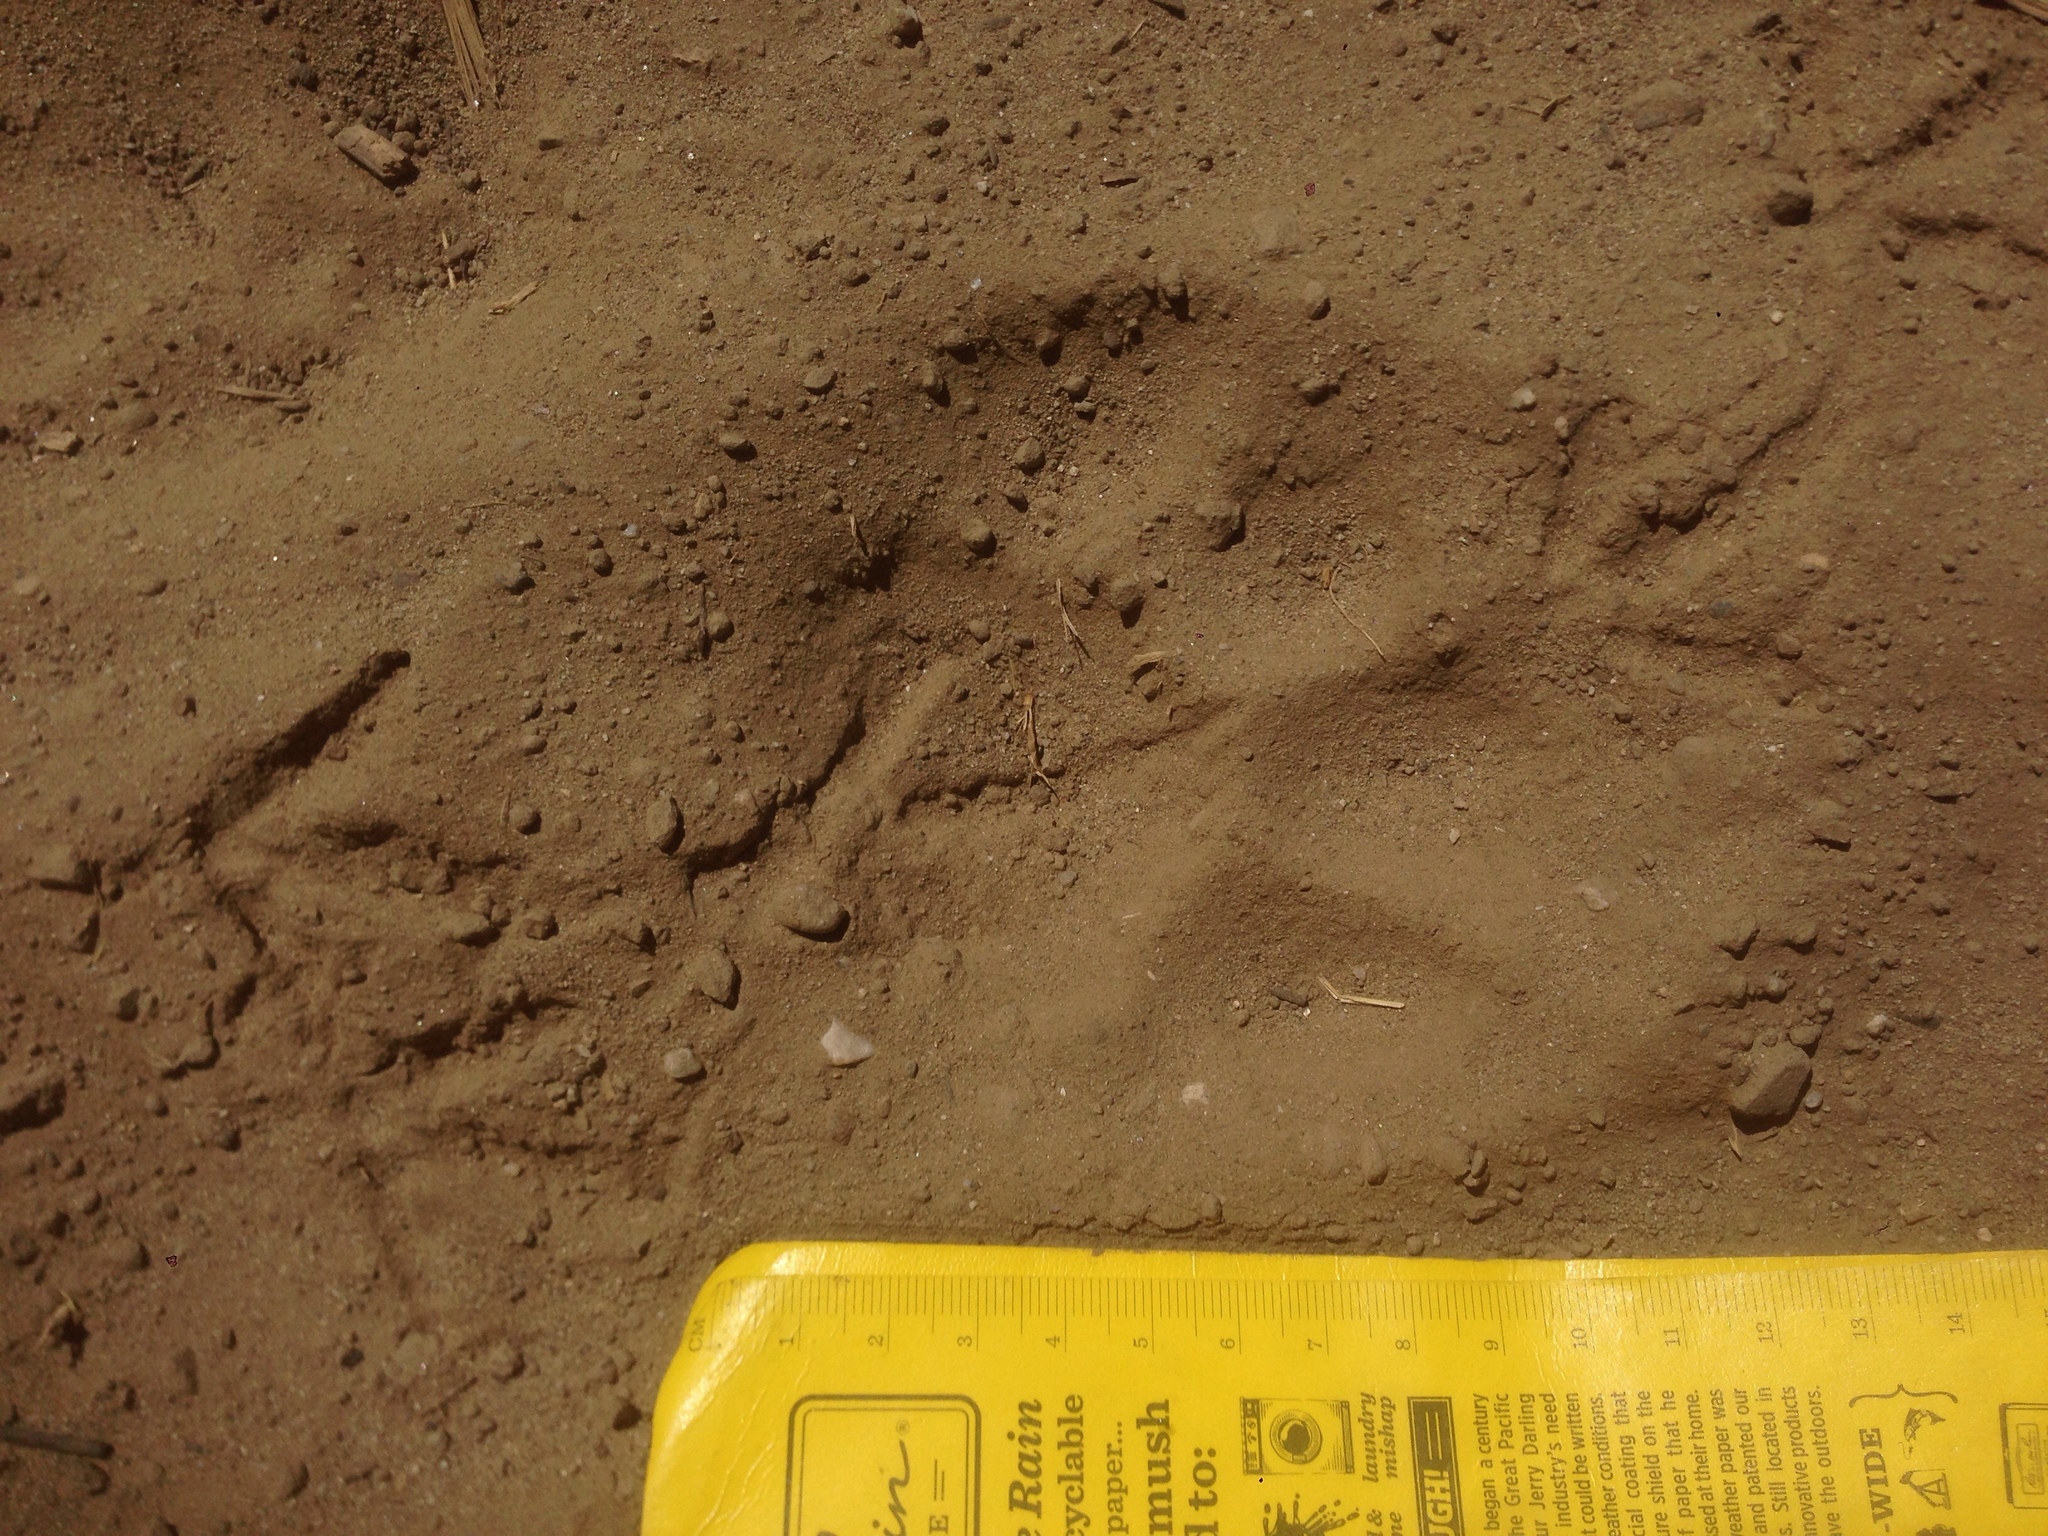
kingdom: Animalia
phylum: Chordata
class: Mammalia
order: Carnivora
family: Felidae
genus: Puma
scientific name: Puma concolor
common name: Puma
